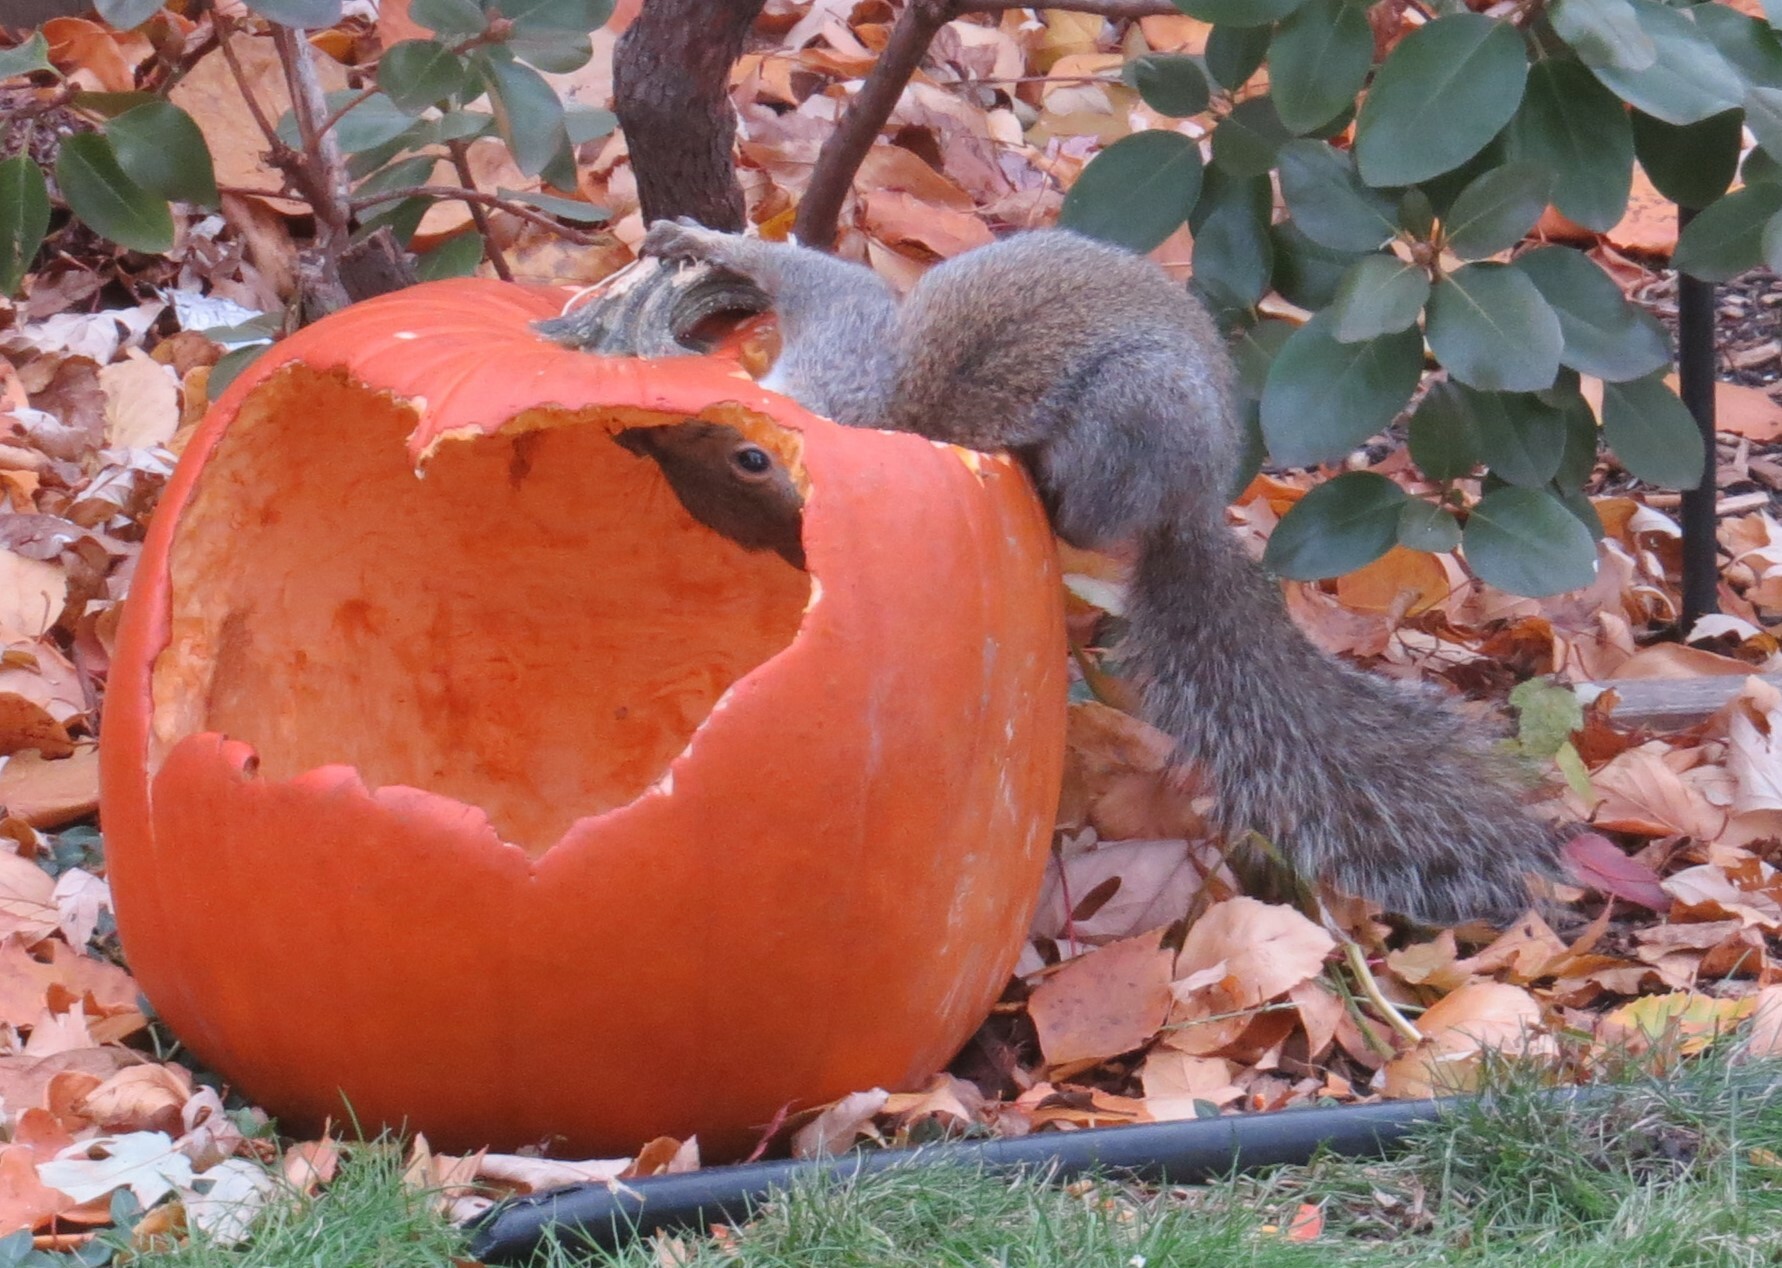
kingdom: Animalia
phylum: Chordata
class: Mammalia
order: Rodentia
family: Sciuridae
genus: Sciurus
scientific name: Sciurus carolinensis
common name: Eastern gray squirrel
